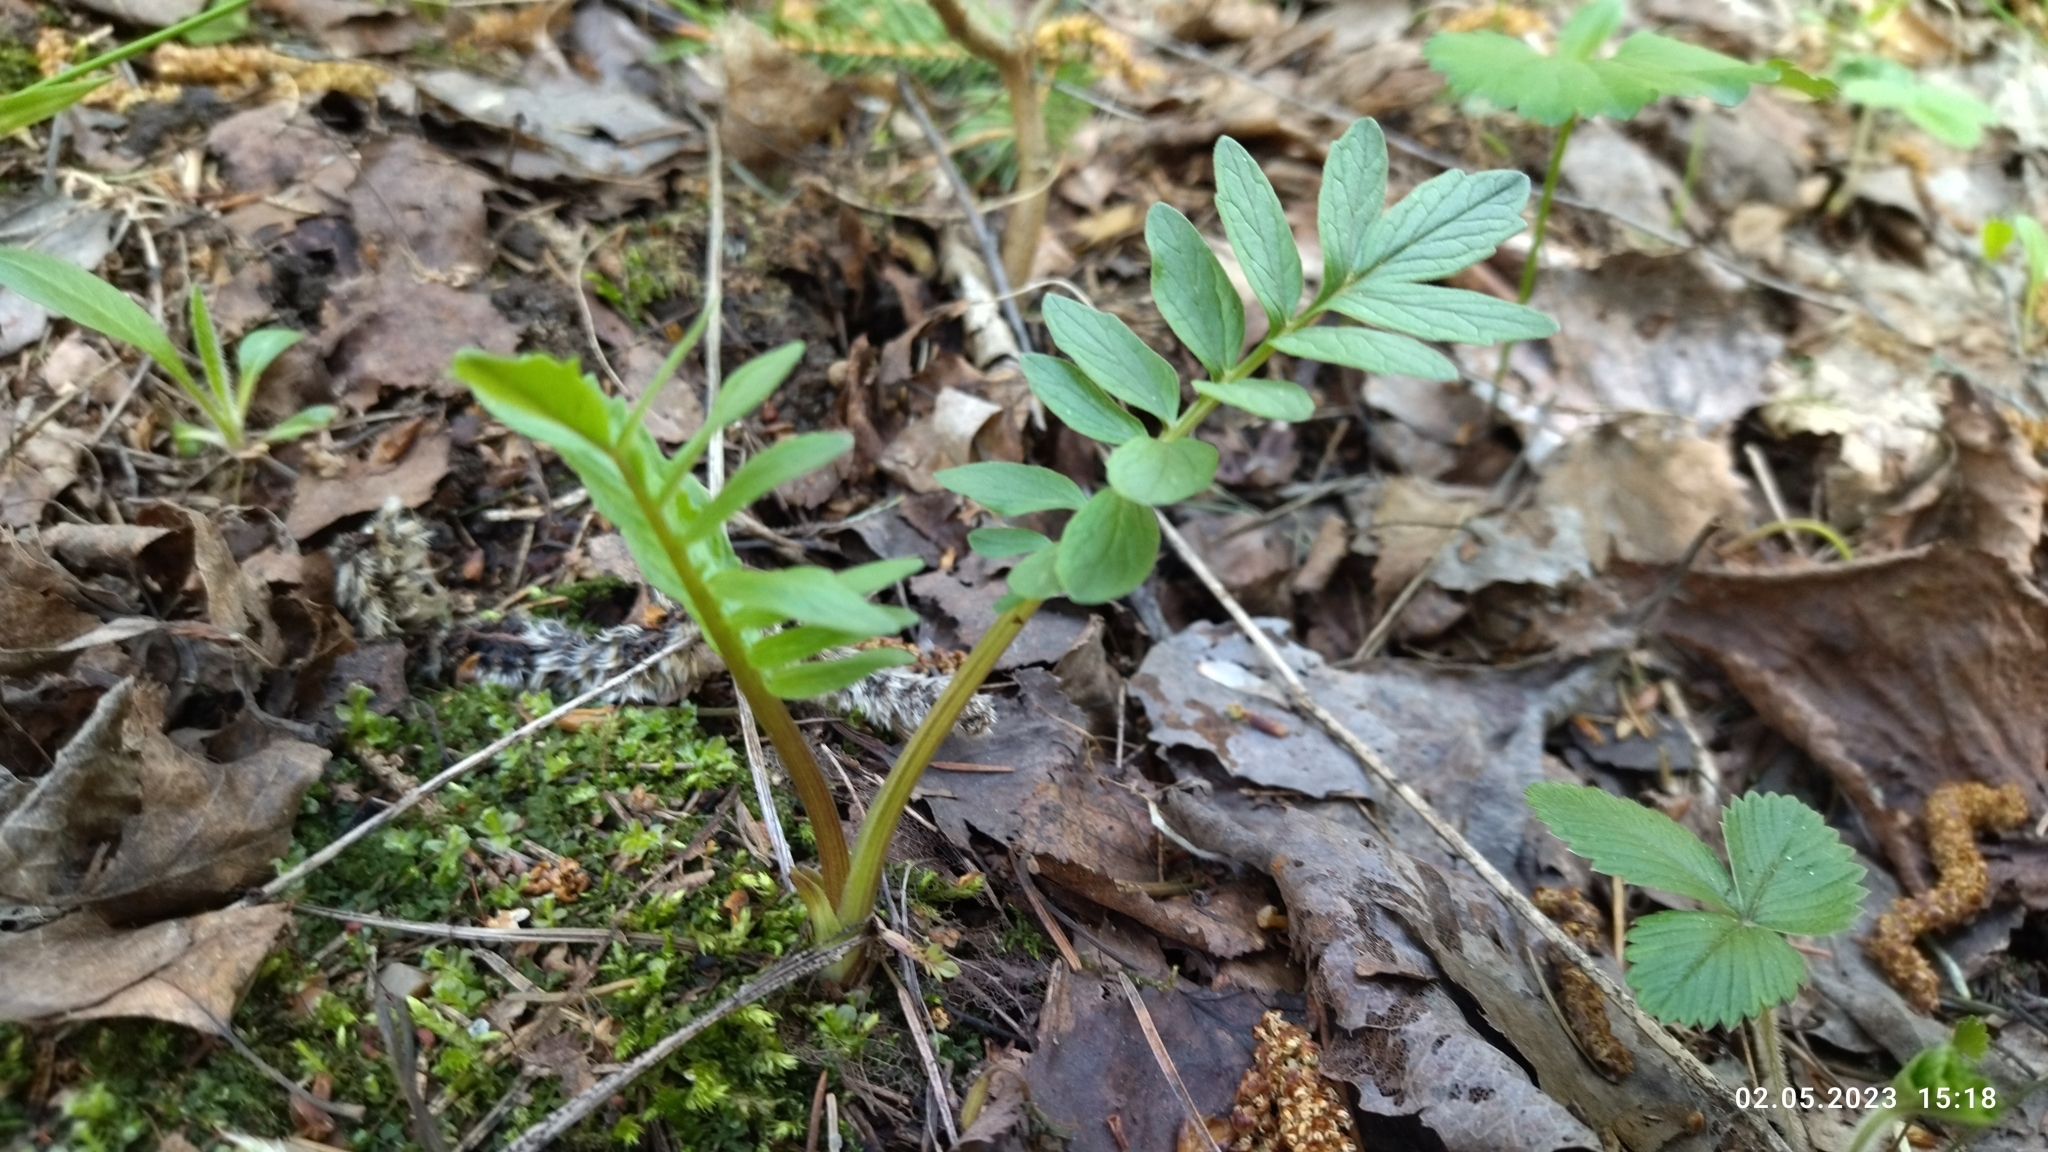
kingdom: Plantae
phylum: Tracheophyta
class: Magnoliopsida
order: Dipsacales
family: Caprifoliaceae
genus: Valeriana
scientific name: Valeriana officinalis
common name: Common valerian
